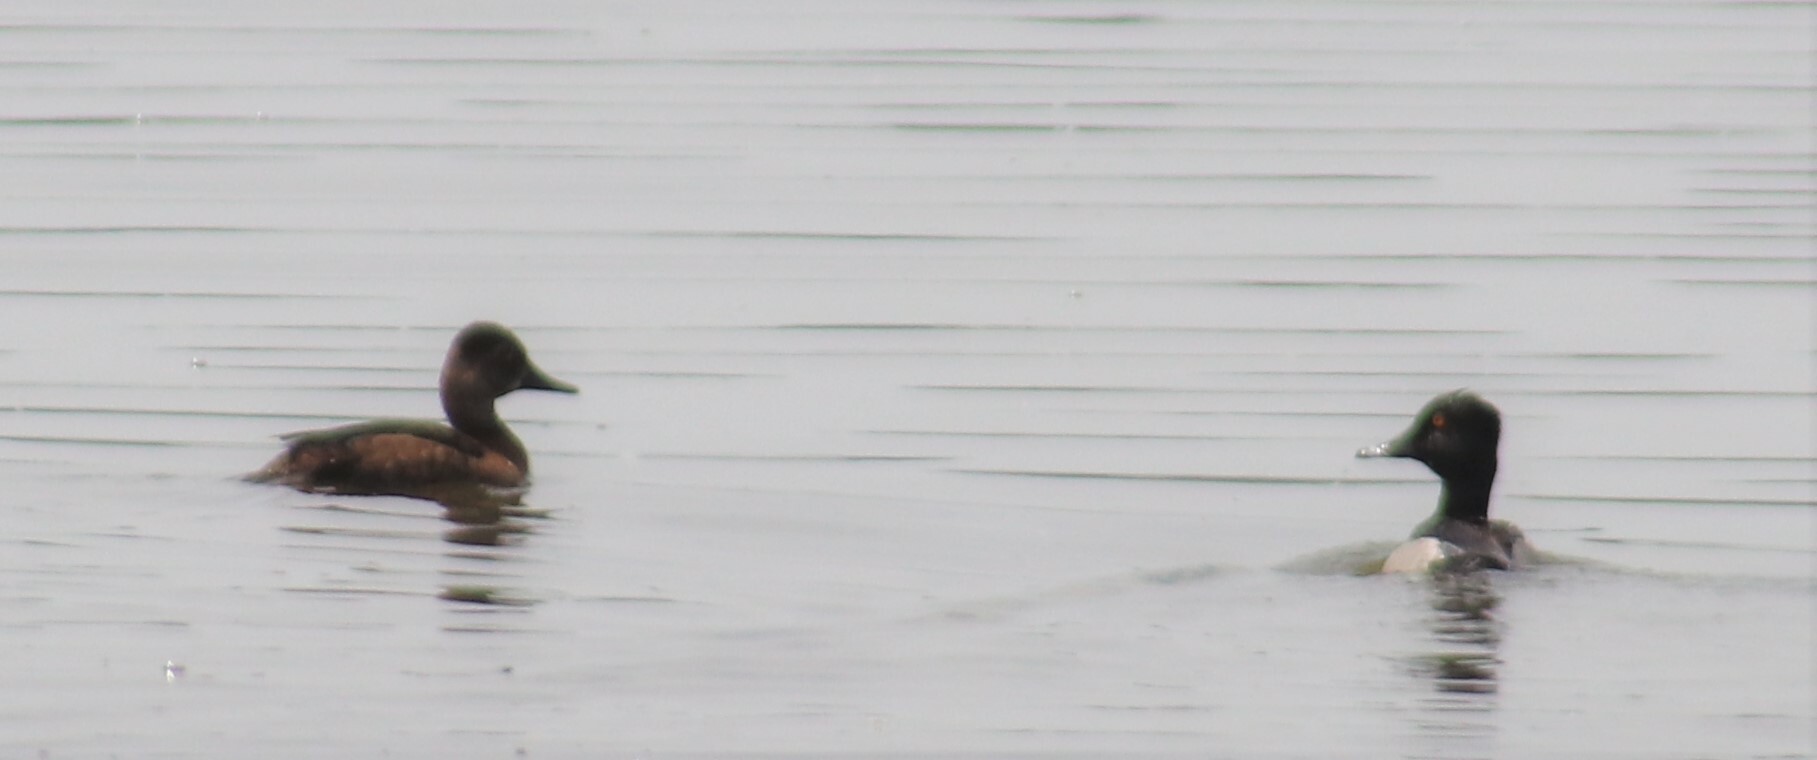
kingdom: Animalia
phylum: Chordata
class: Aves
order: Anseriformes
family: Anatidae
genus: Aythya
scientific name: Aythya collaris
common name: Ring-necked duck
